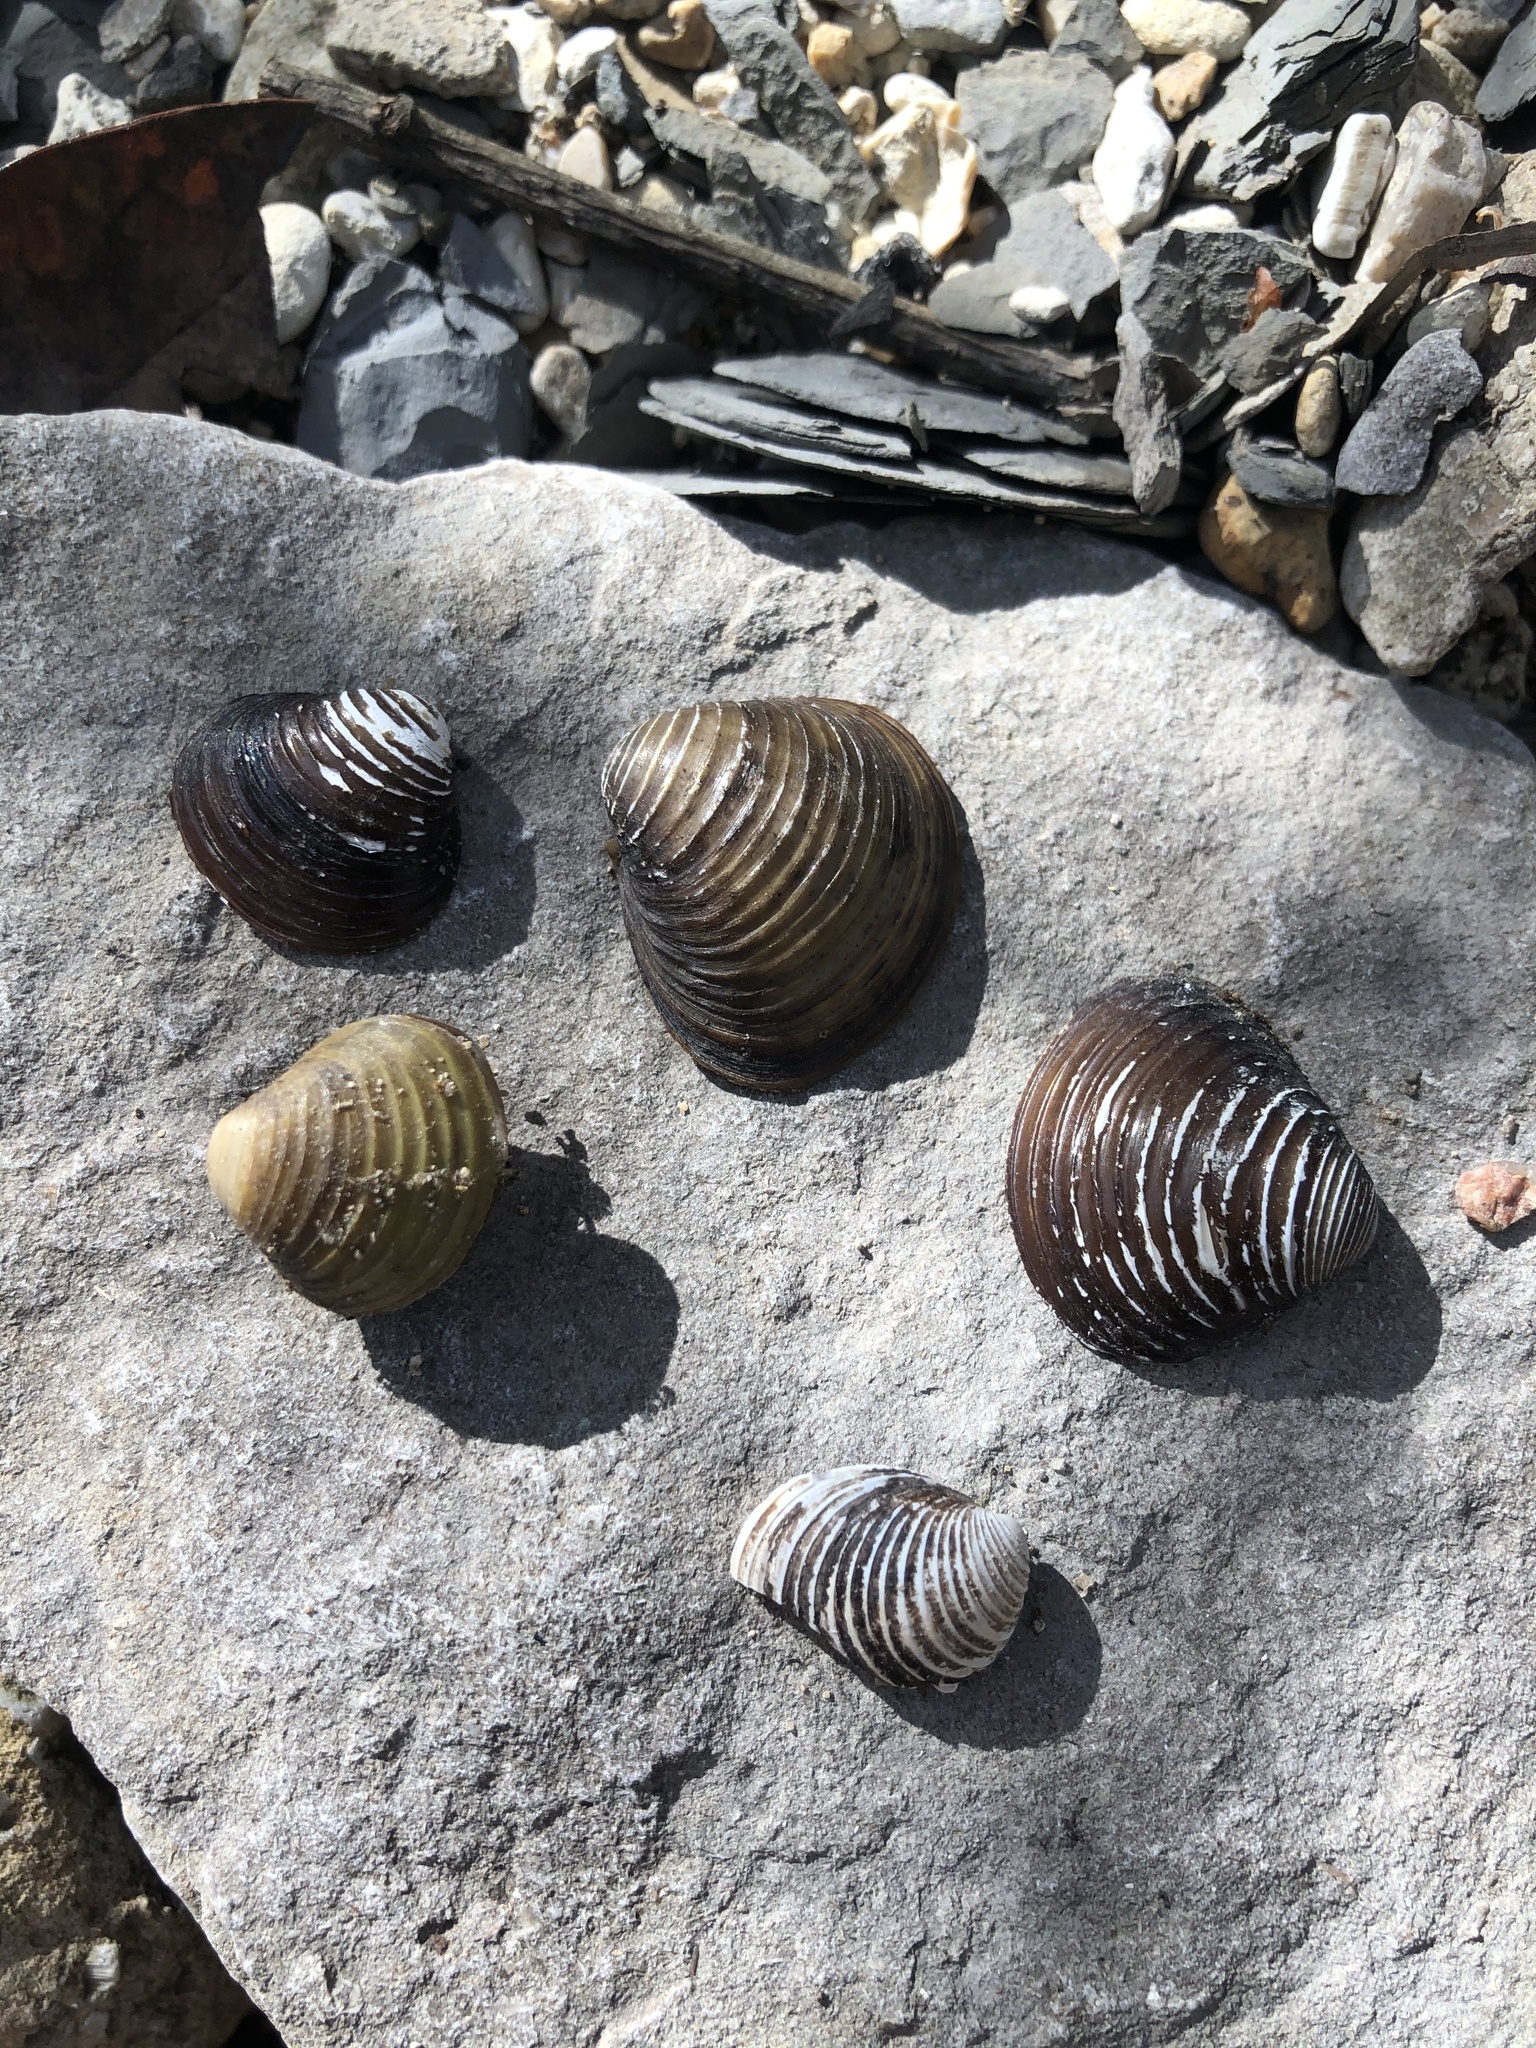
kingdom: Animalia
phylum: Mollusca
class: Bivalvia
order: Venerida
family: Cyrenidae
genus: Corbicula
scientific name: Corbicula fluminea
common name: Asian clam
